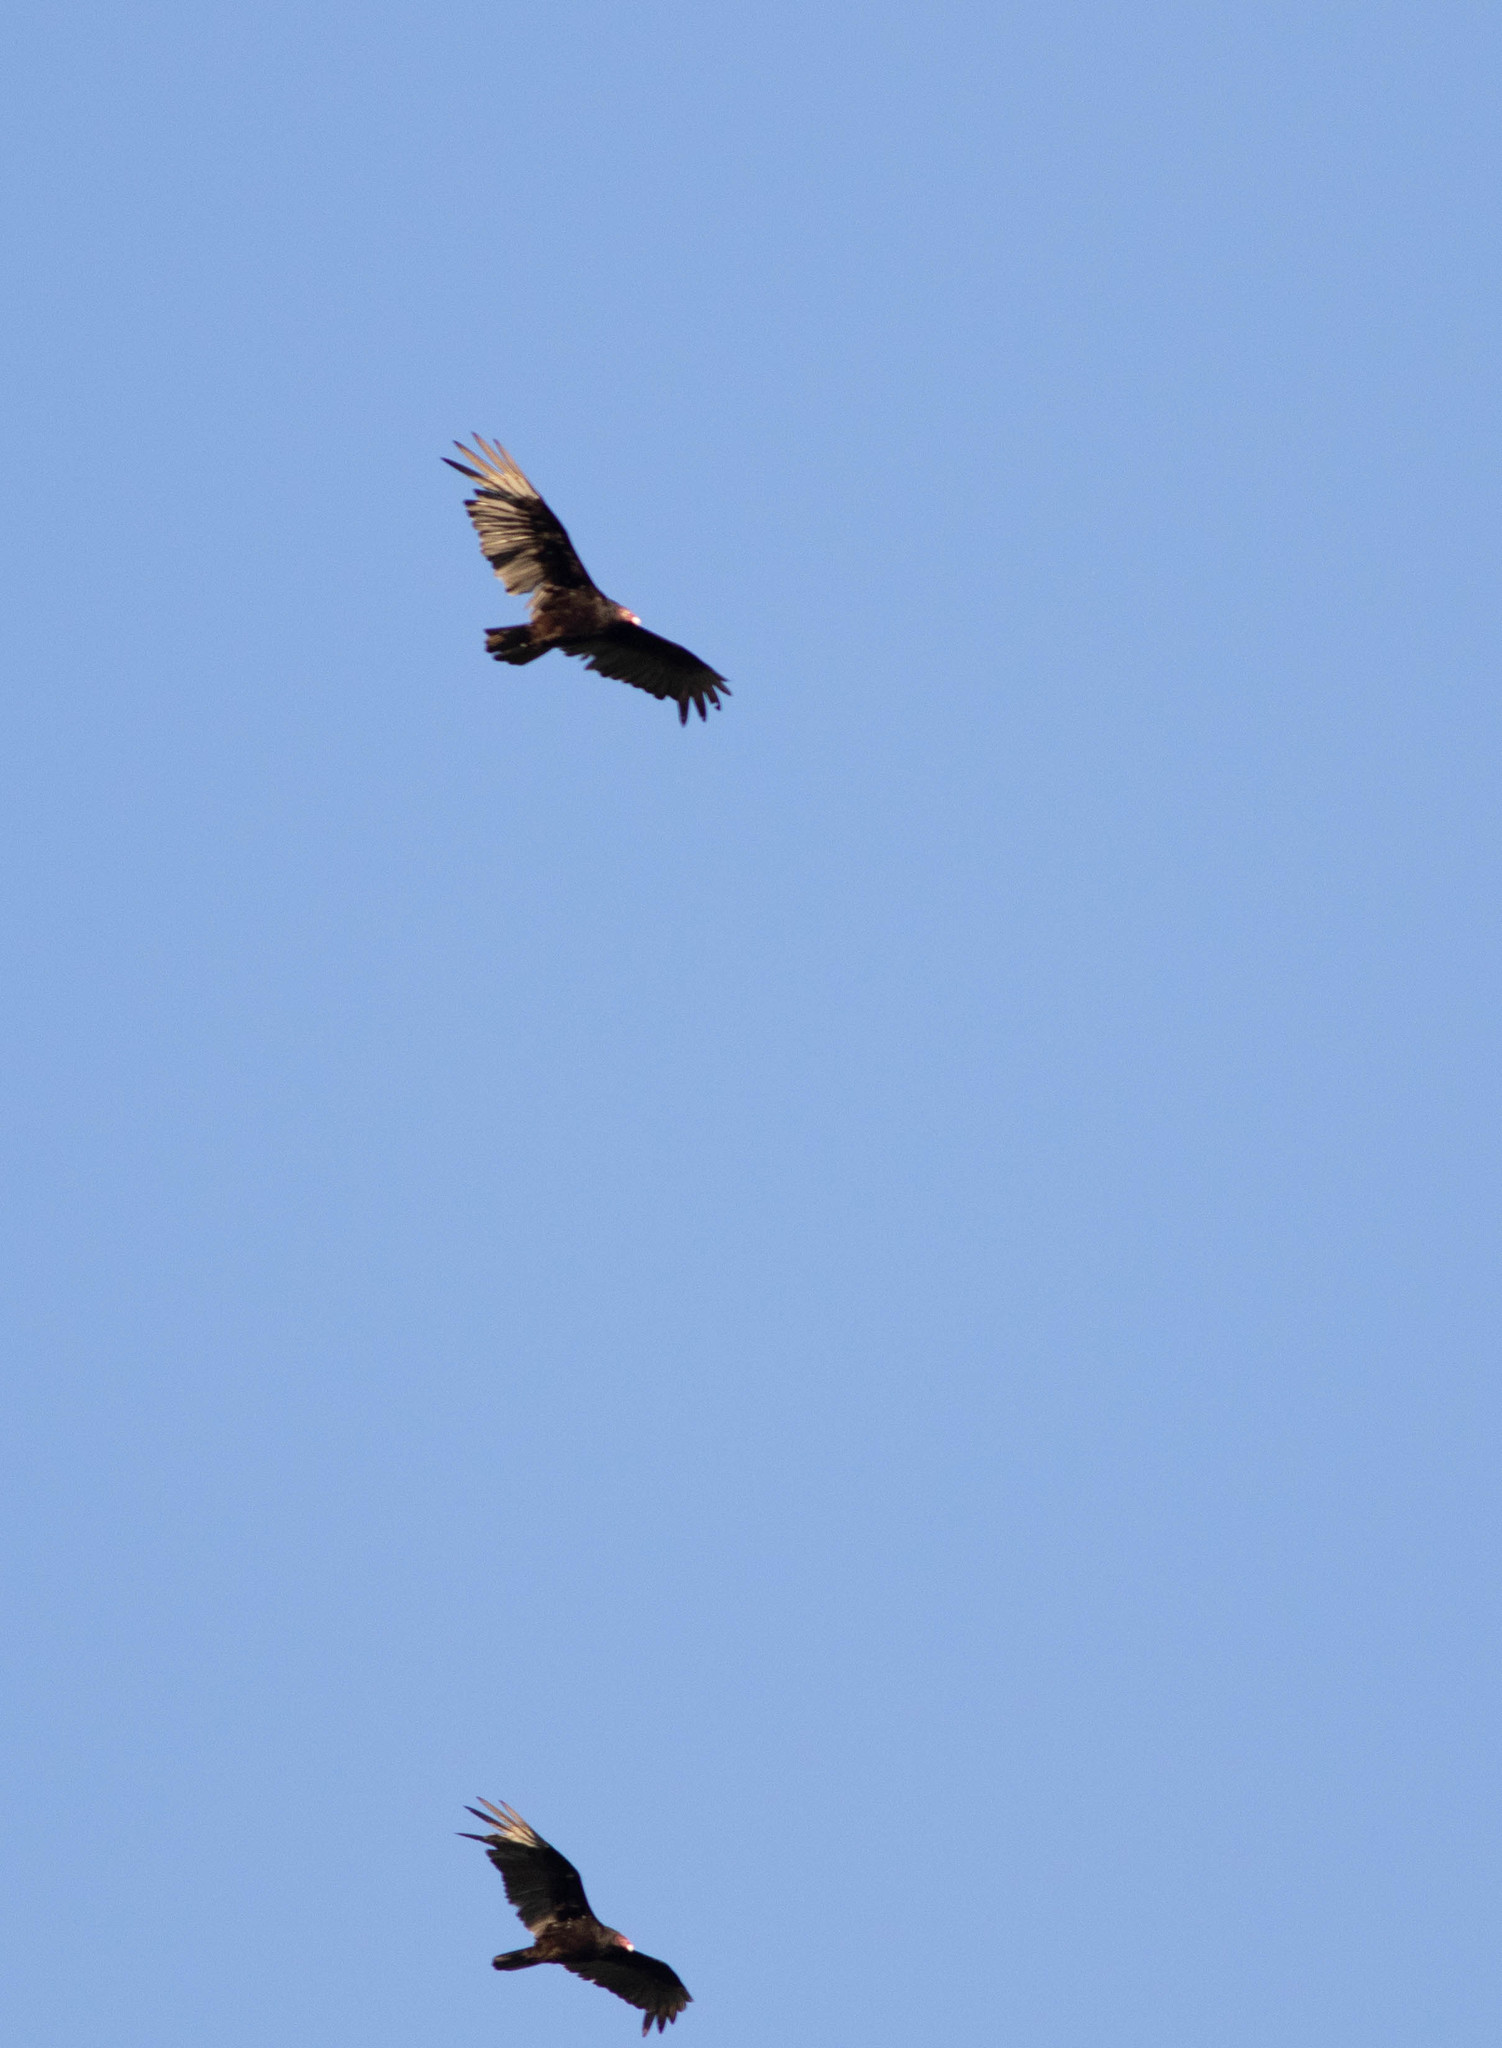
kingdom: Animalia
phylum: Chordata
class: Aves
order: Accipitriformes
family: Cathartidae
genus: Cathartes
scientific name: Cathartes aura
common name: Turkey vulture
